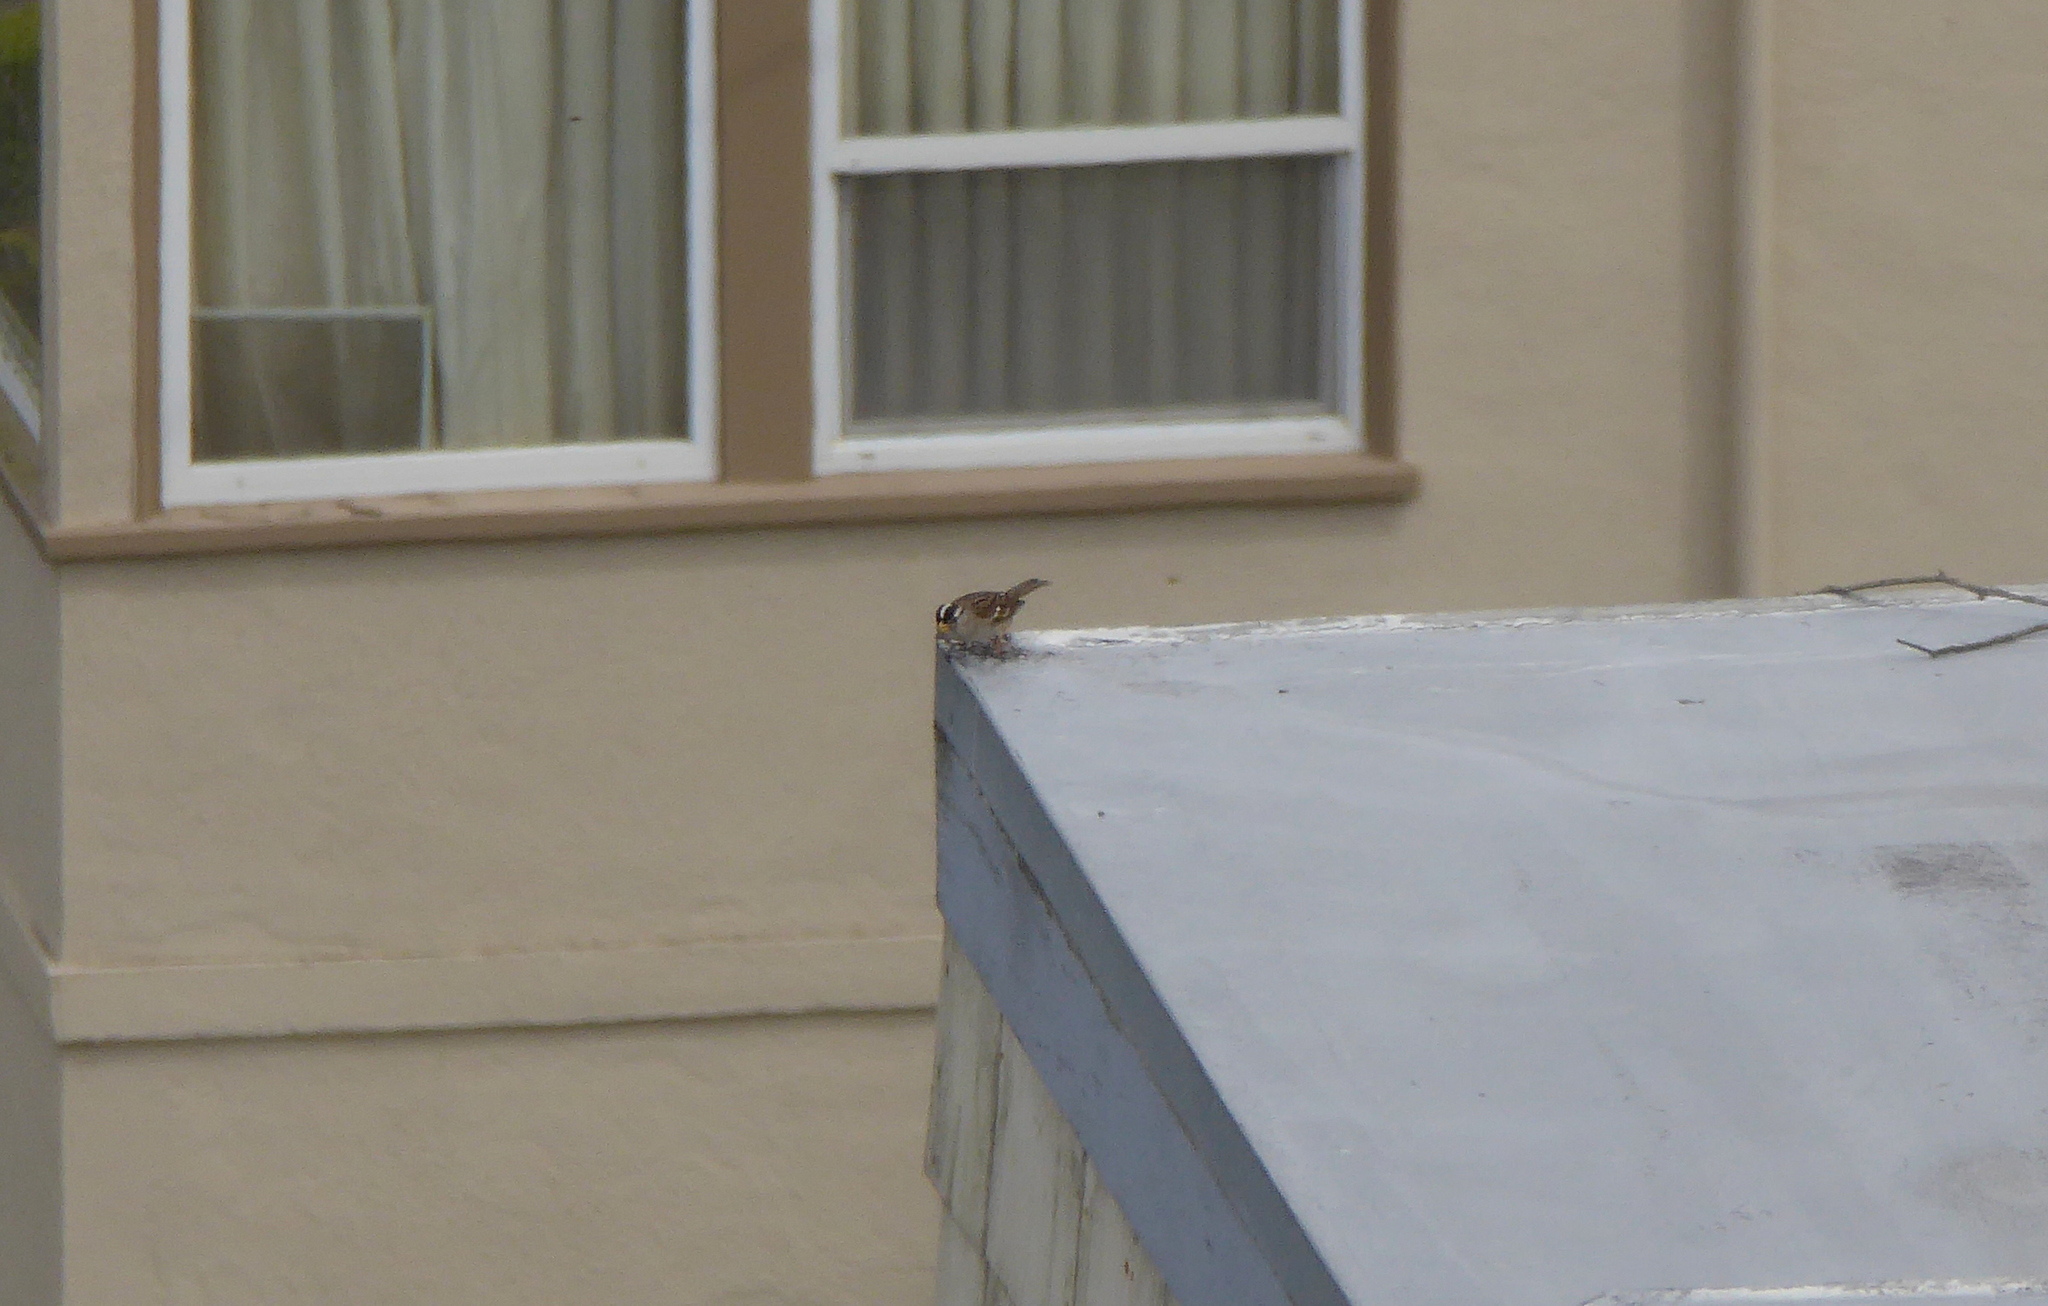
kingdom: Animalia
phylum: Chordata
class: Aves
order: Passeriformes
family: Passerellidae
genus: Zonotrichia
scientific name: Zonotrichia leucophrys
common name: White-crowned sparrow
